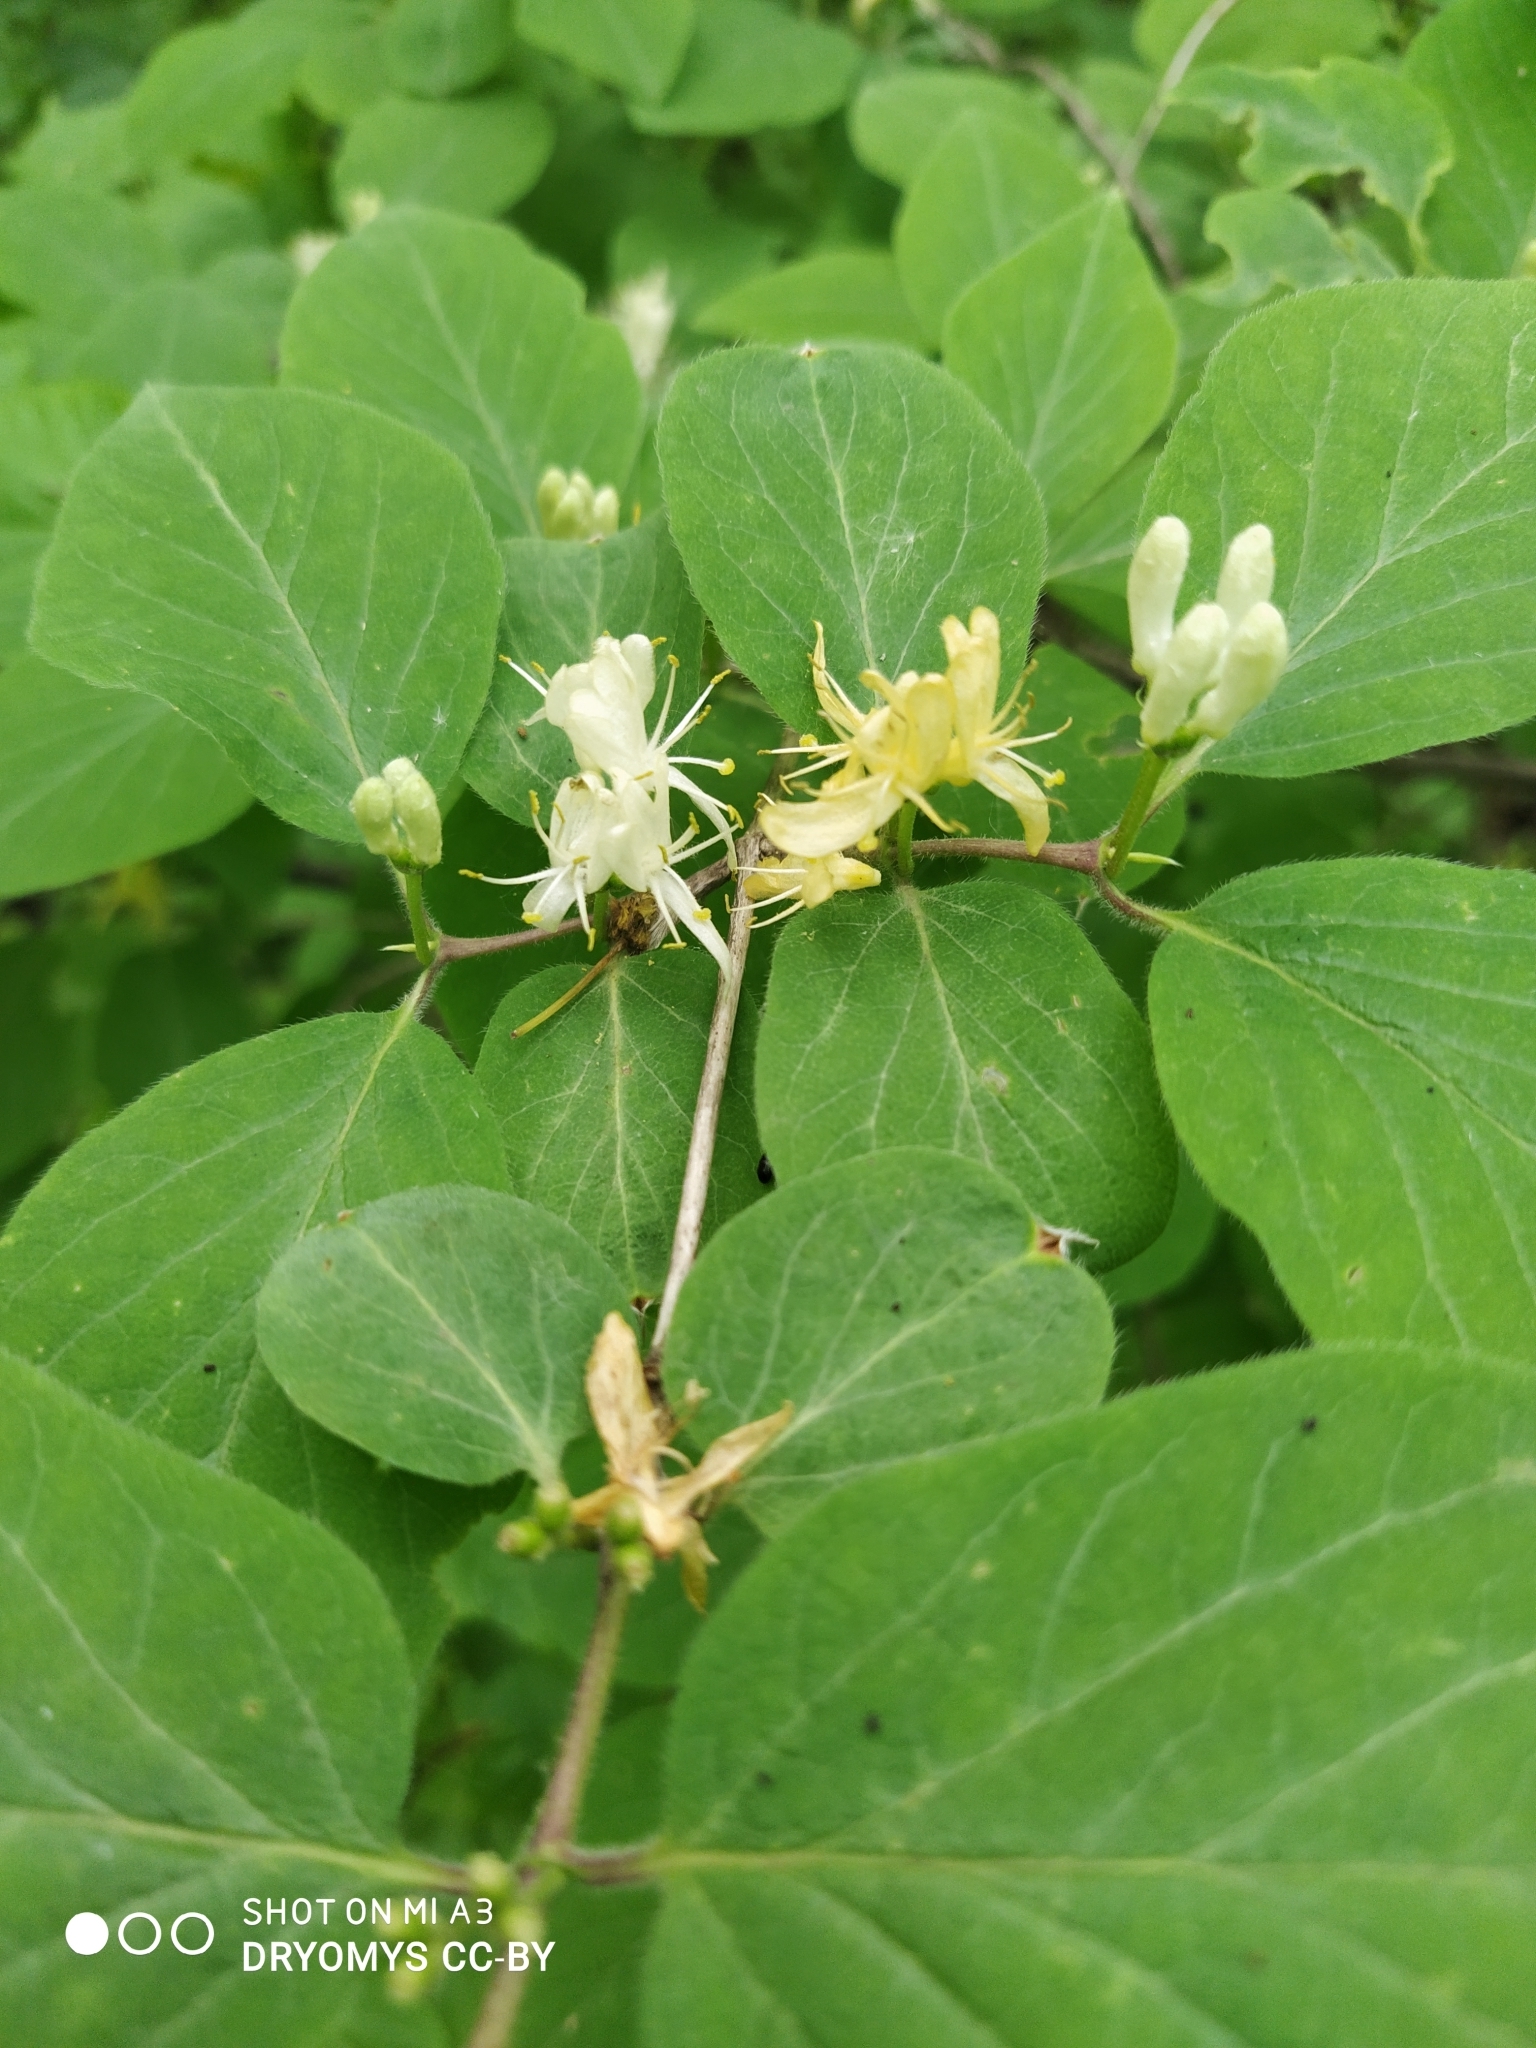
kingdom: Plantae
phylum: Tracheophyta
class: Magnoliopsida
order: Dipsacales
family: Caprifoliaceae
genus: Lonicera
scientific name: Lonicera xylosteum
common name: Fly honeysuckle
